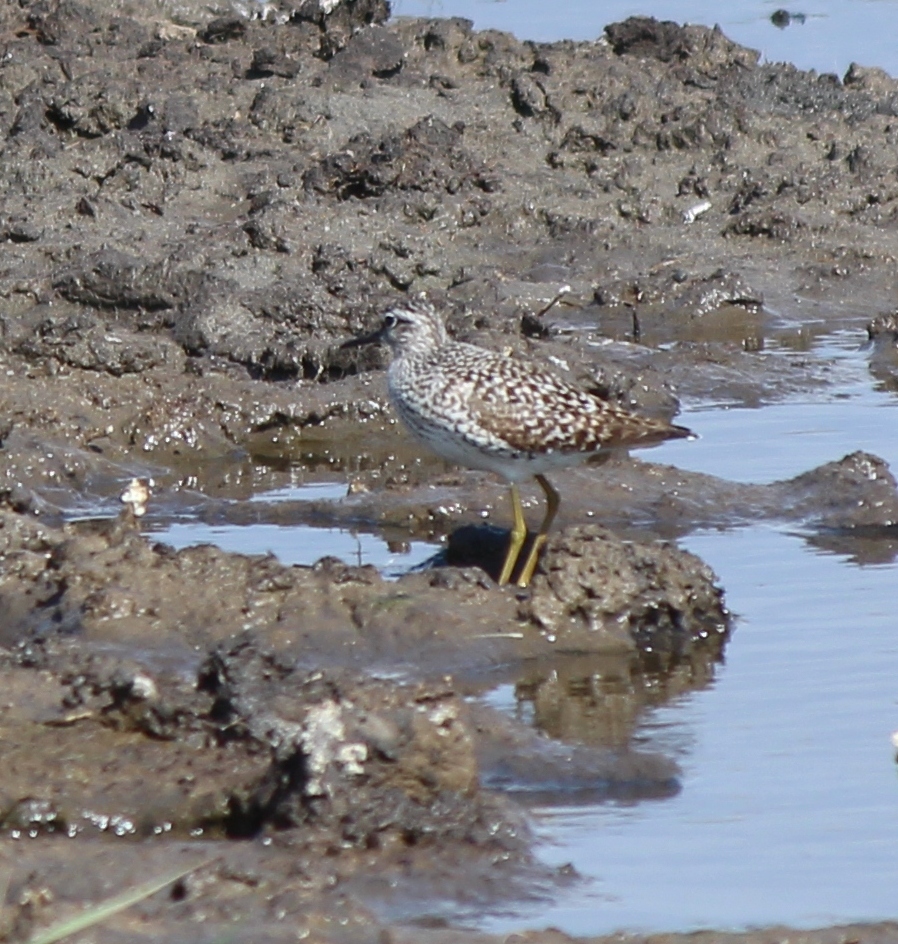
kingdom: Animalia
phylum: Chordata
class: Aves
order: Charadriiformes
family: Scolopacidae
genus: Tringa
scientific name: Tringa glareola
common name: Wood sandpiper
